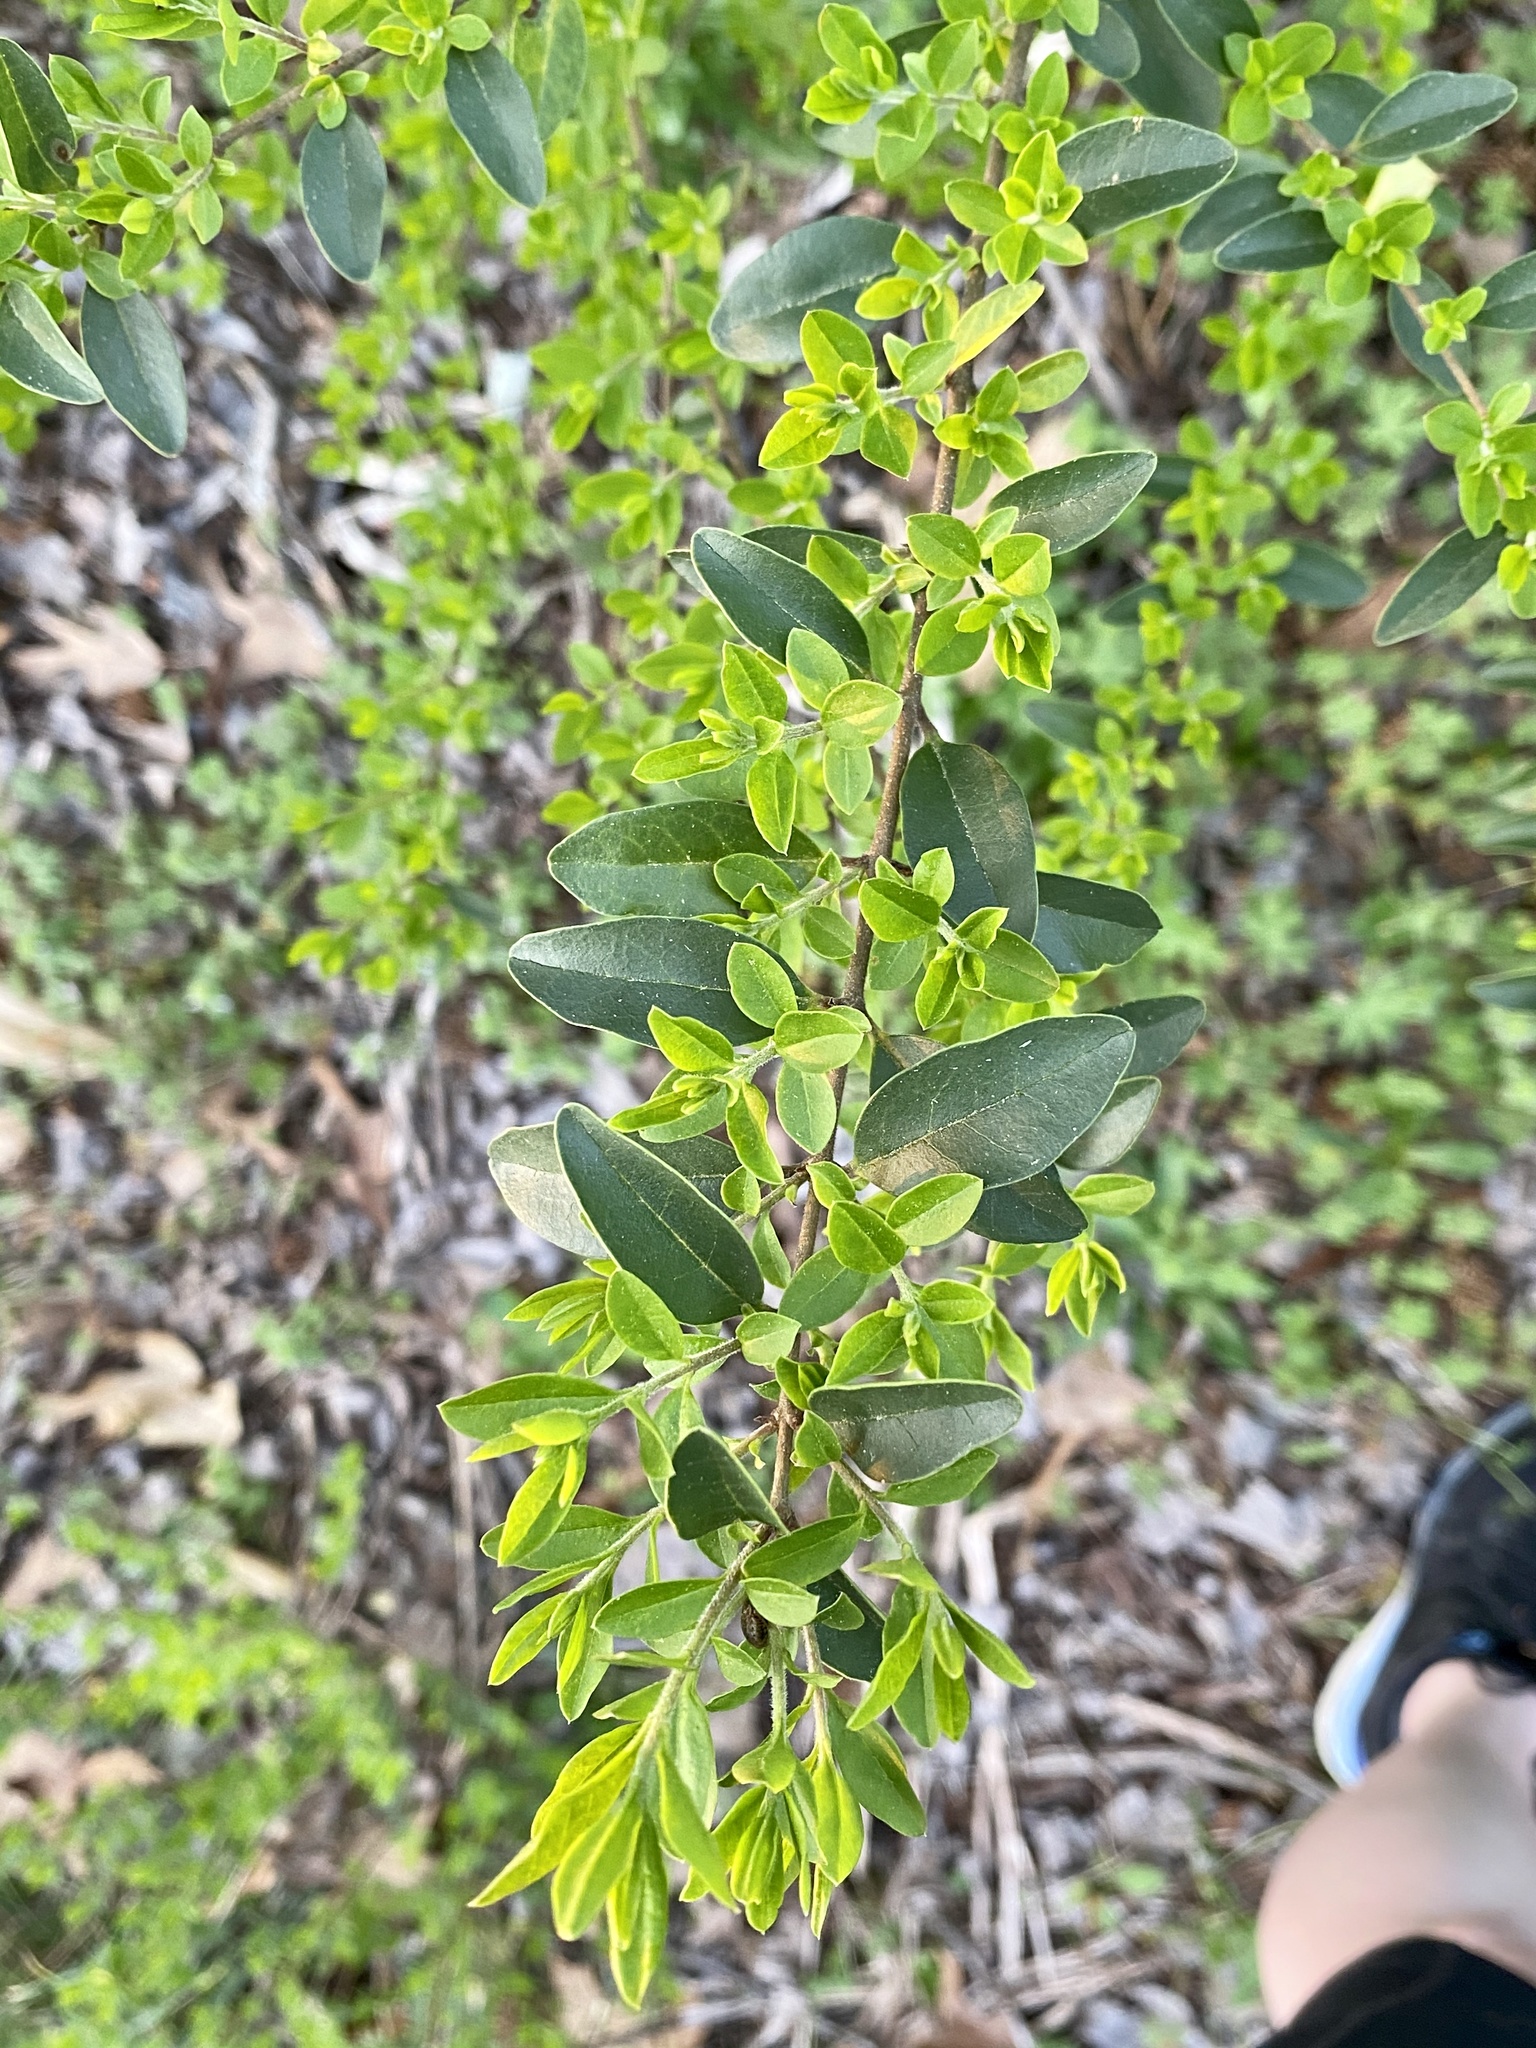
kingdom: Plantae
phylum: Tracheophyta
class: Magnoliopsida
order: Lamiales
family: Oleaceae
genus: Ligustrum
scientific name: Ligustrum sinense
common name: Chinese privet
